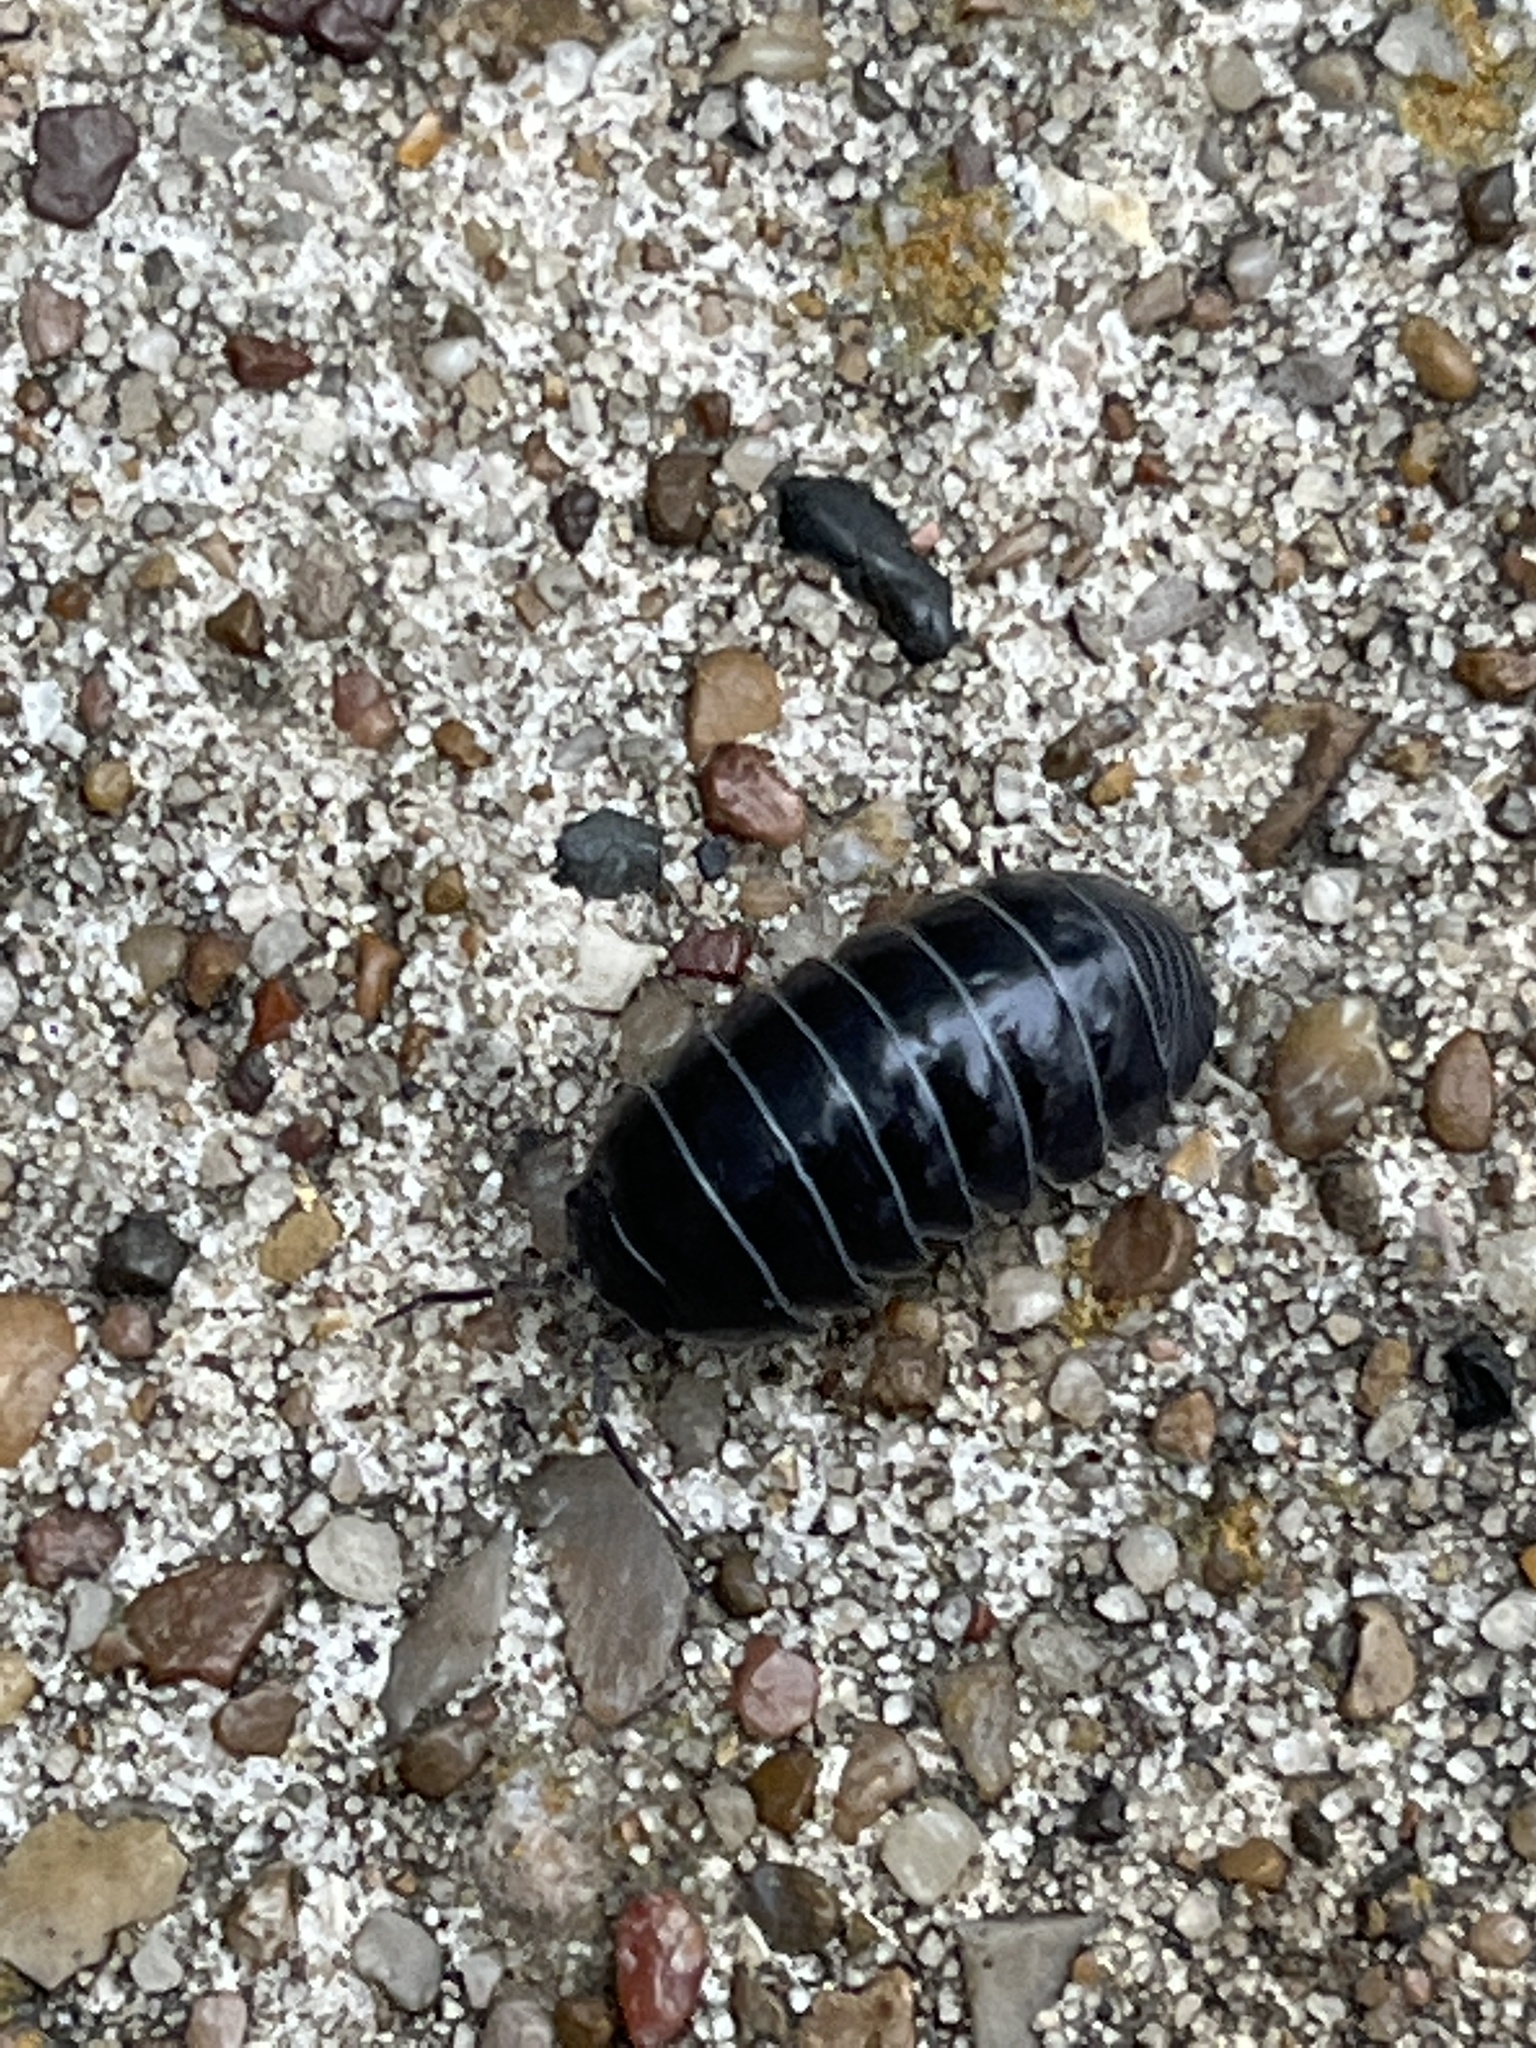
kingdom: Animalia
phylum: Arthropoda
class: Malacostraca
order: Isopoda
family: Armadillidiidae
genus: Armadillidium
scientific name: Armadillidium vulgare
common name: Common pill woodlouse
